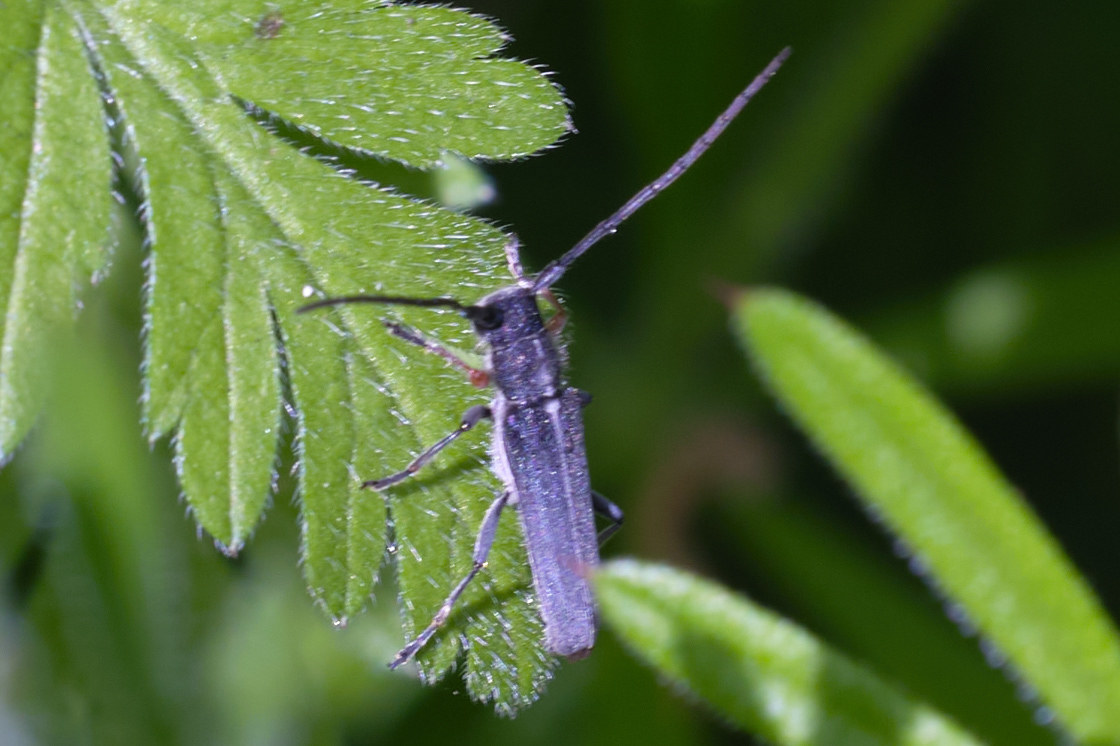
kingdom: Animalia
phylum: Arthropoda
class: Insecta
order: Coleoptera
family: Cerambycidae
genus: Phytoecia
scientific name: Phytoecia cylindrica
